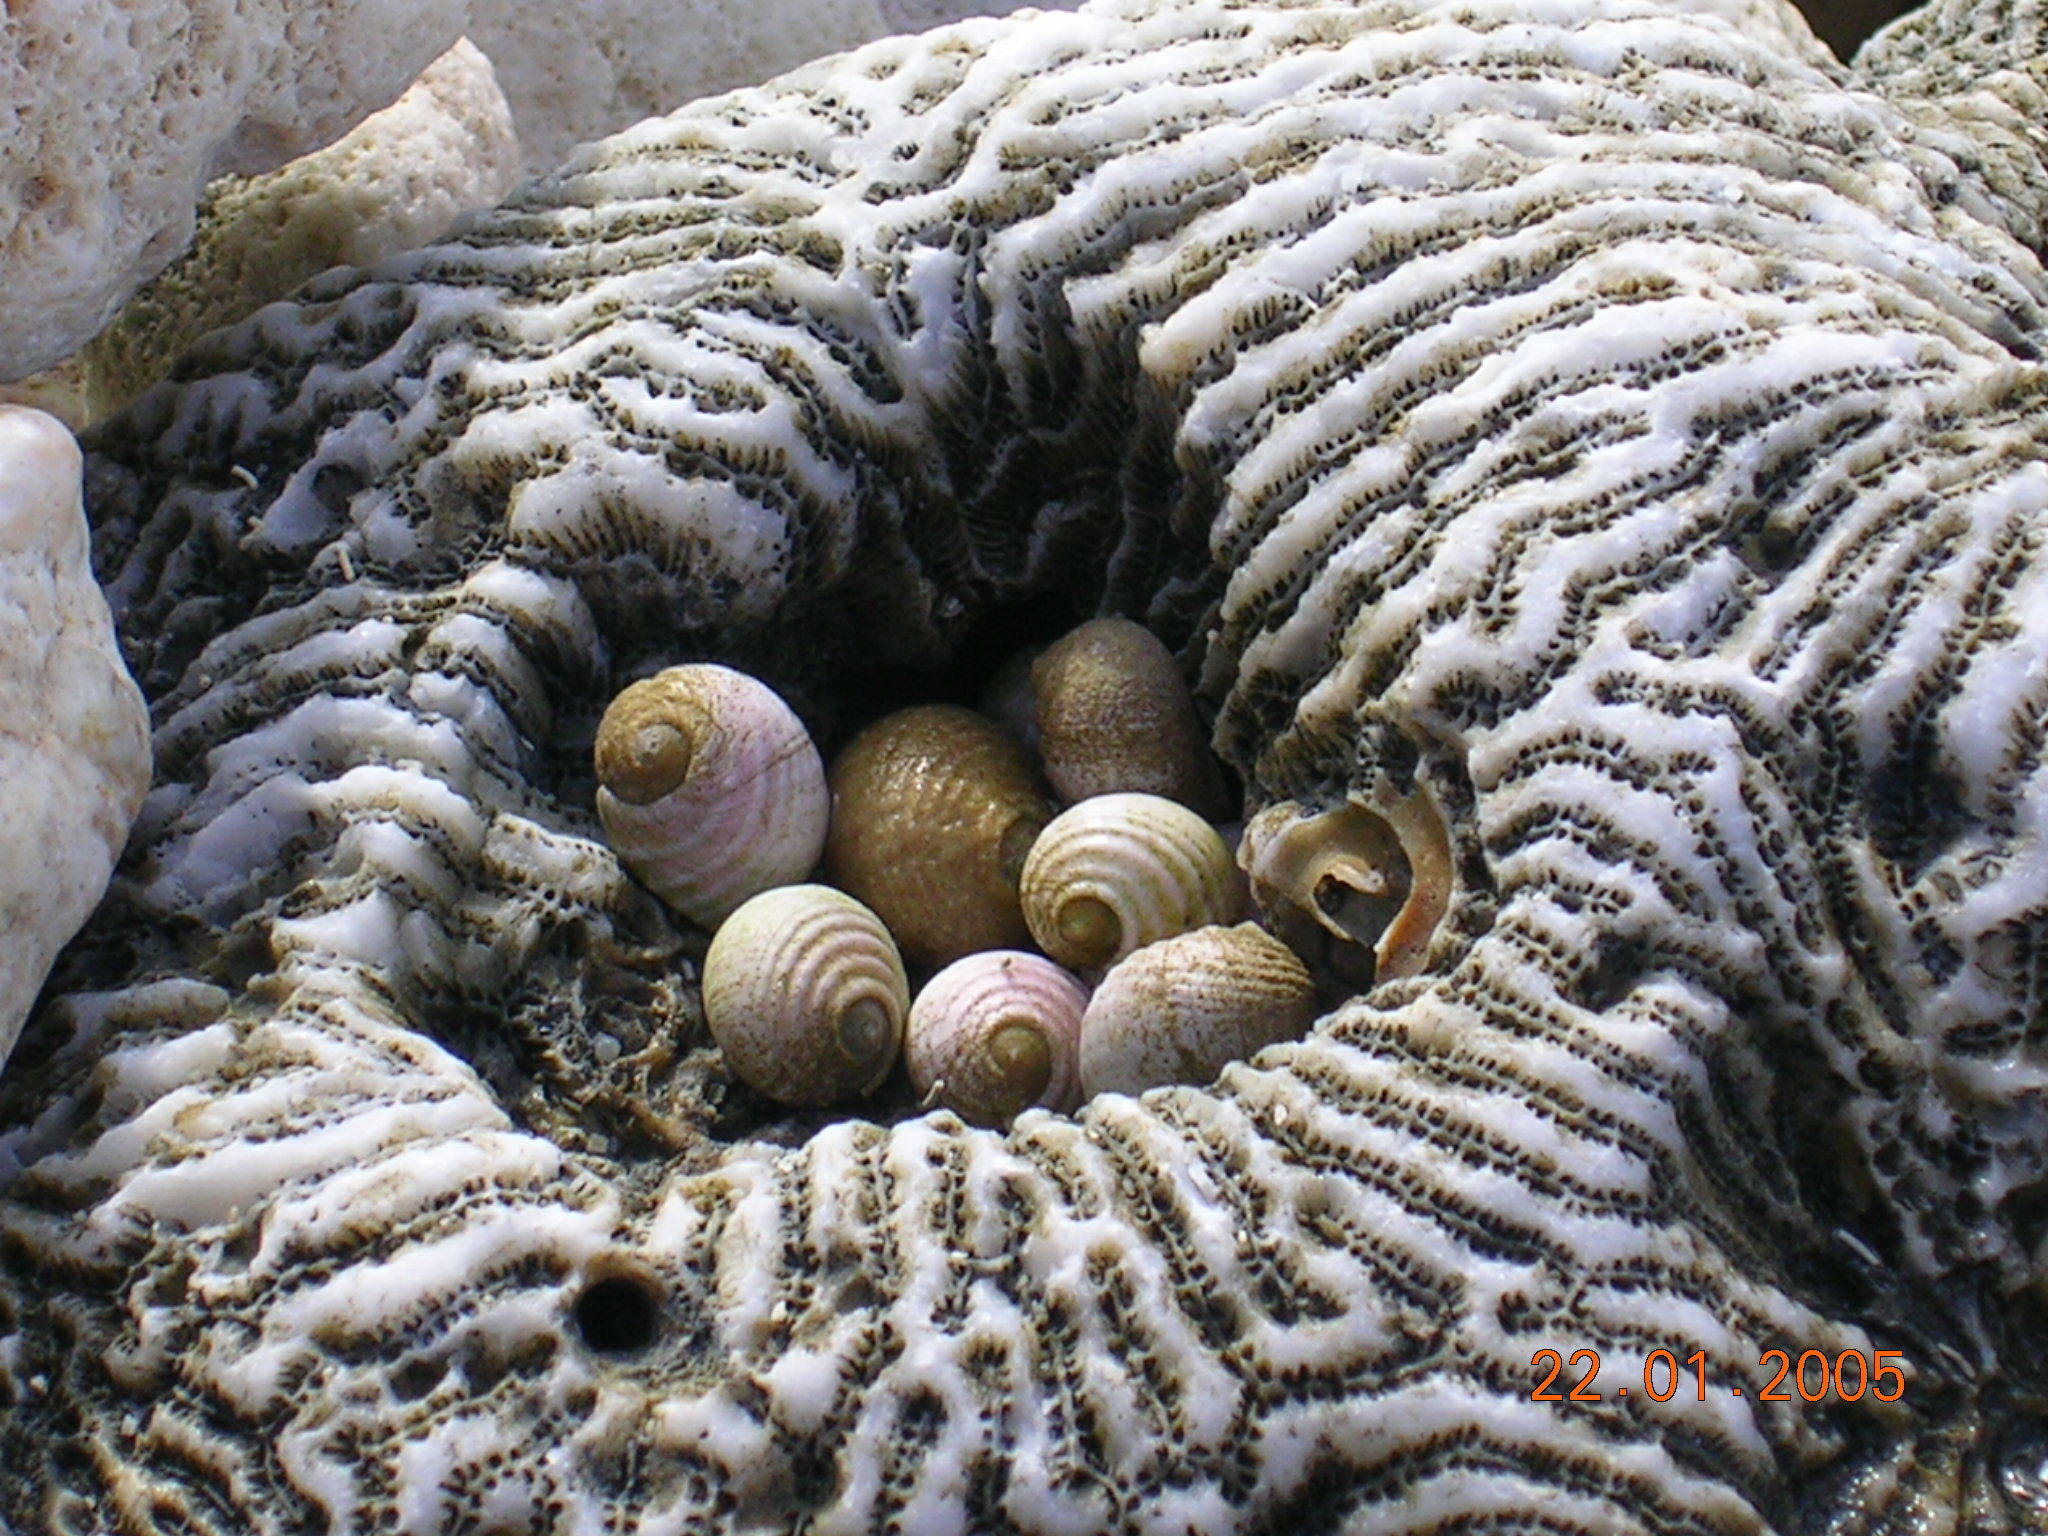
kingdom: Animalia
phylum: Cnidaria
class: Anthozoa
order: Scleractinia
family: Merulinidae
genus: Leptoria
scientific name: Leptoria phrygia
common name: Least valley coral
